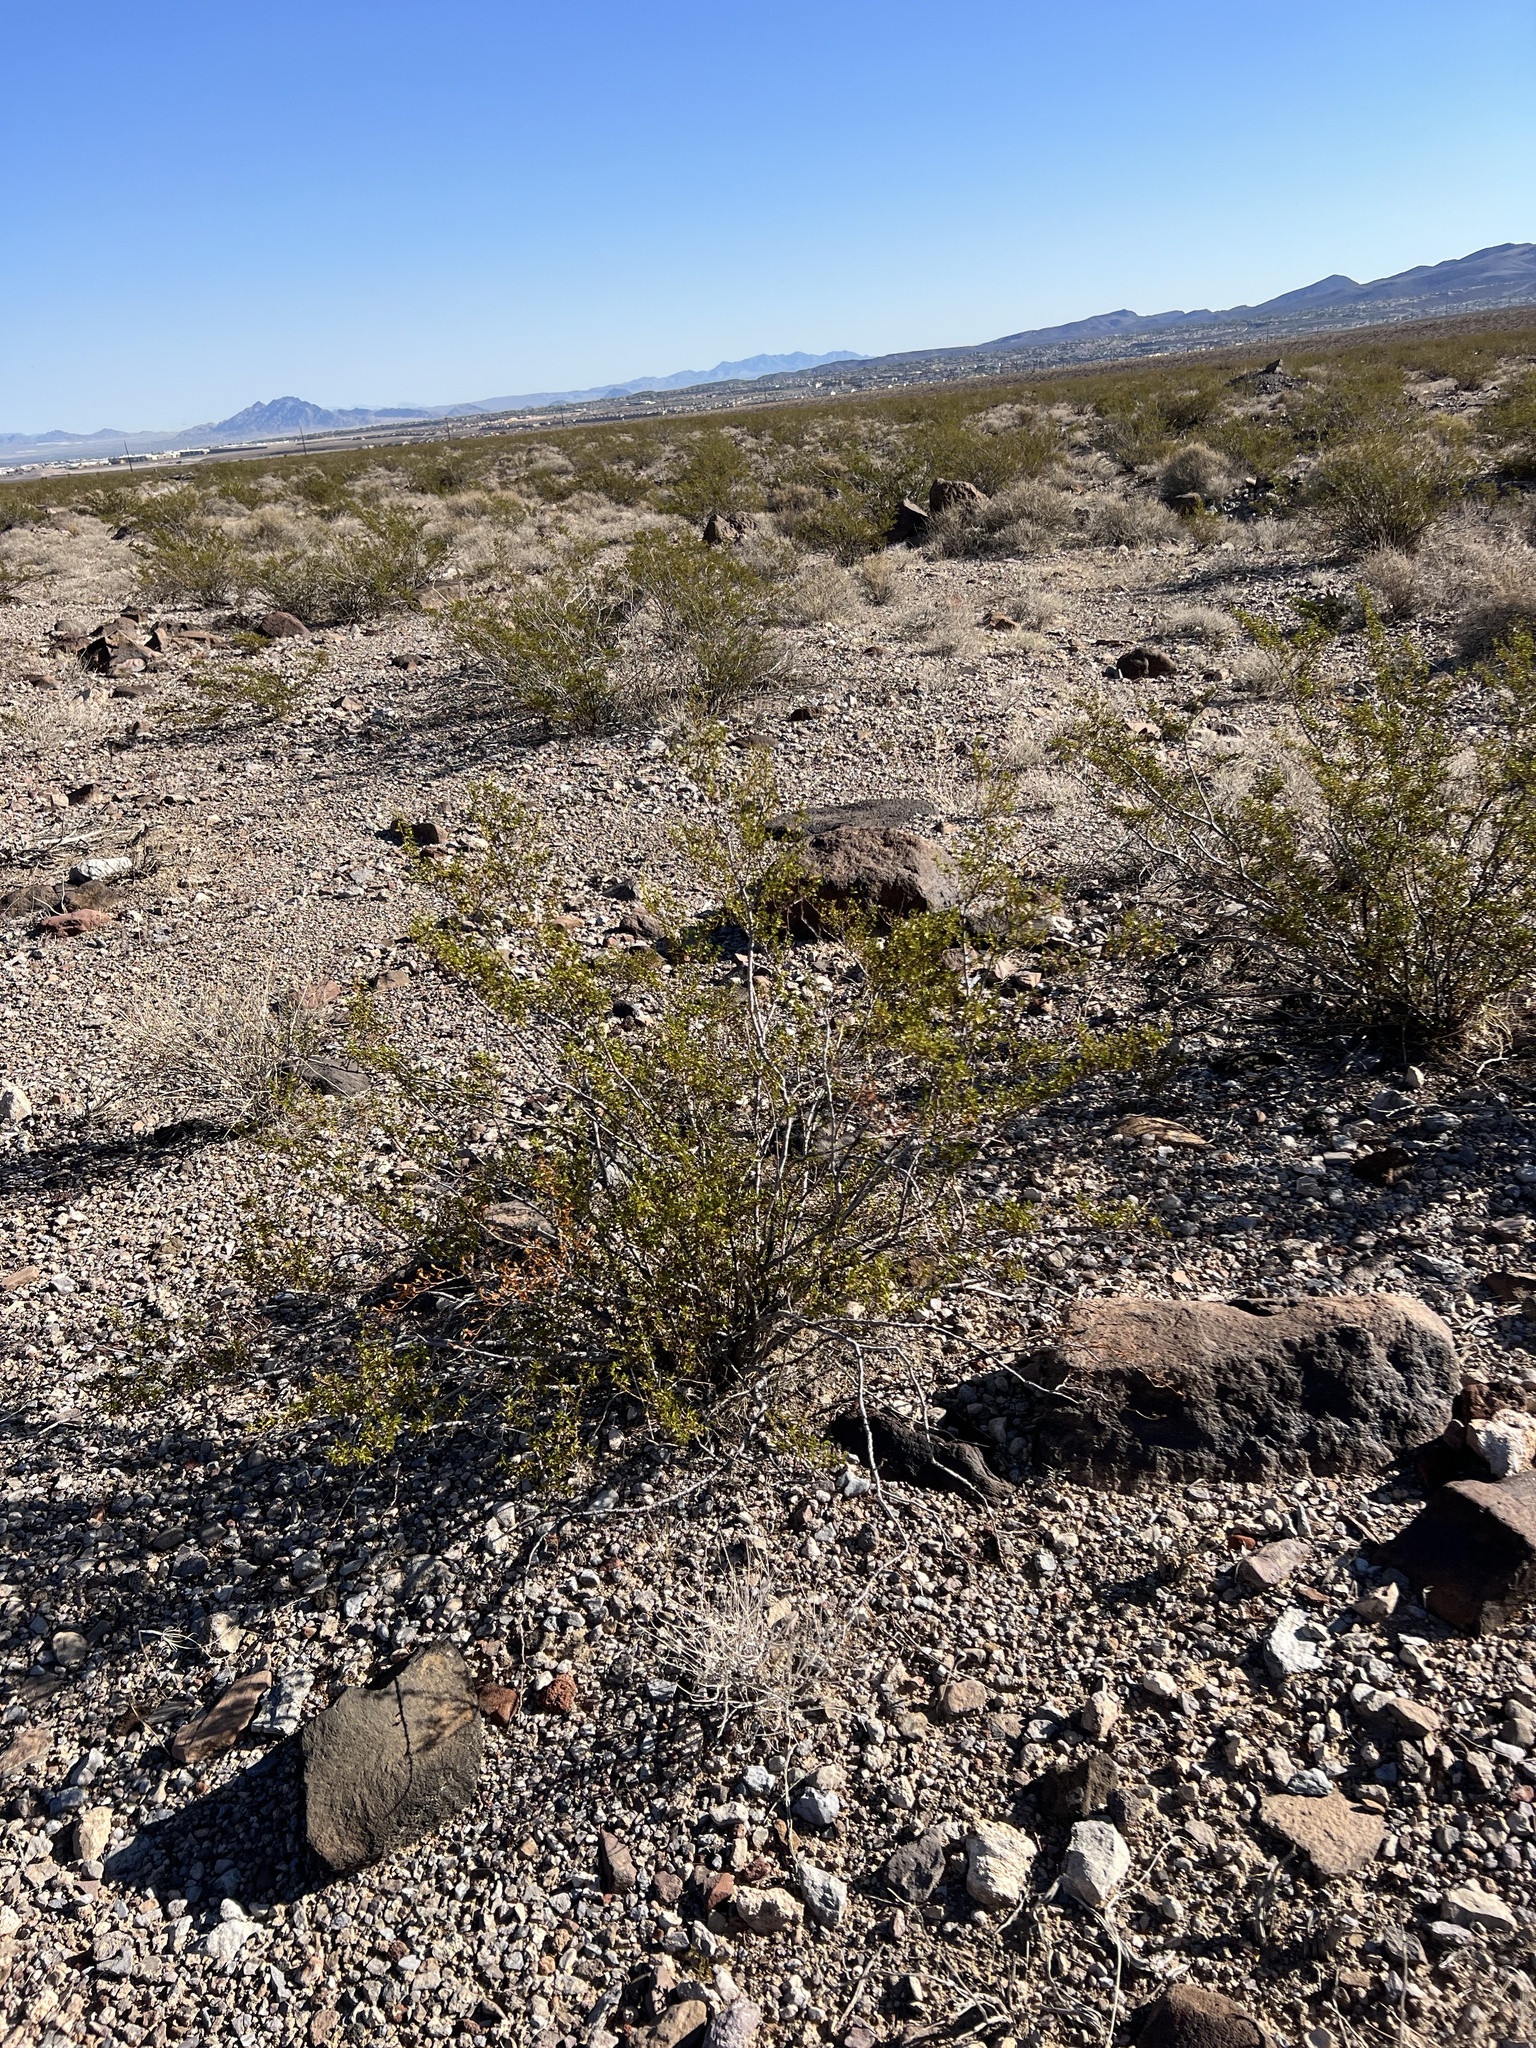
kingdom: Plantae
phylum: Tracheophyta
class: Magnoliopsida
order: Zygophyllales
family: Zygophyllaceae
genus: Larrea
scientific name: Larrea tridentata
